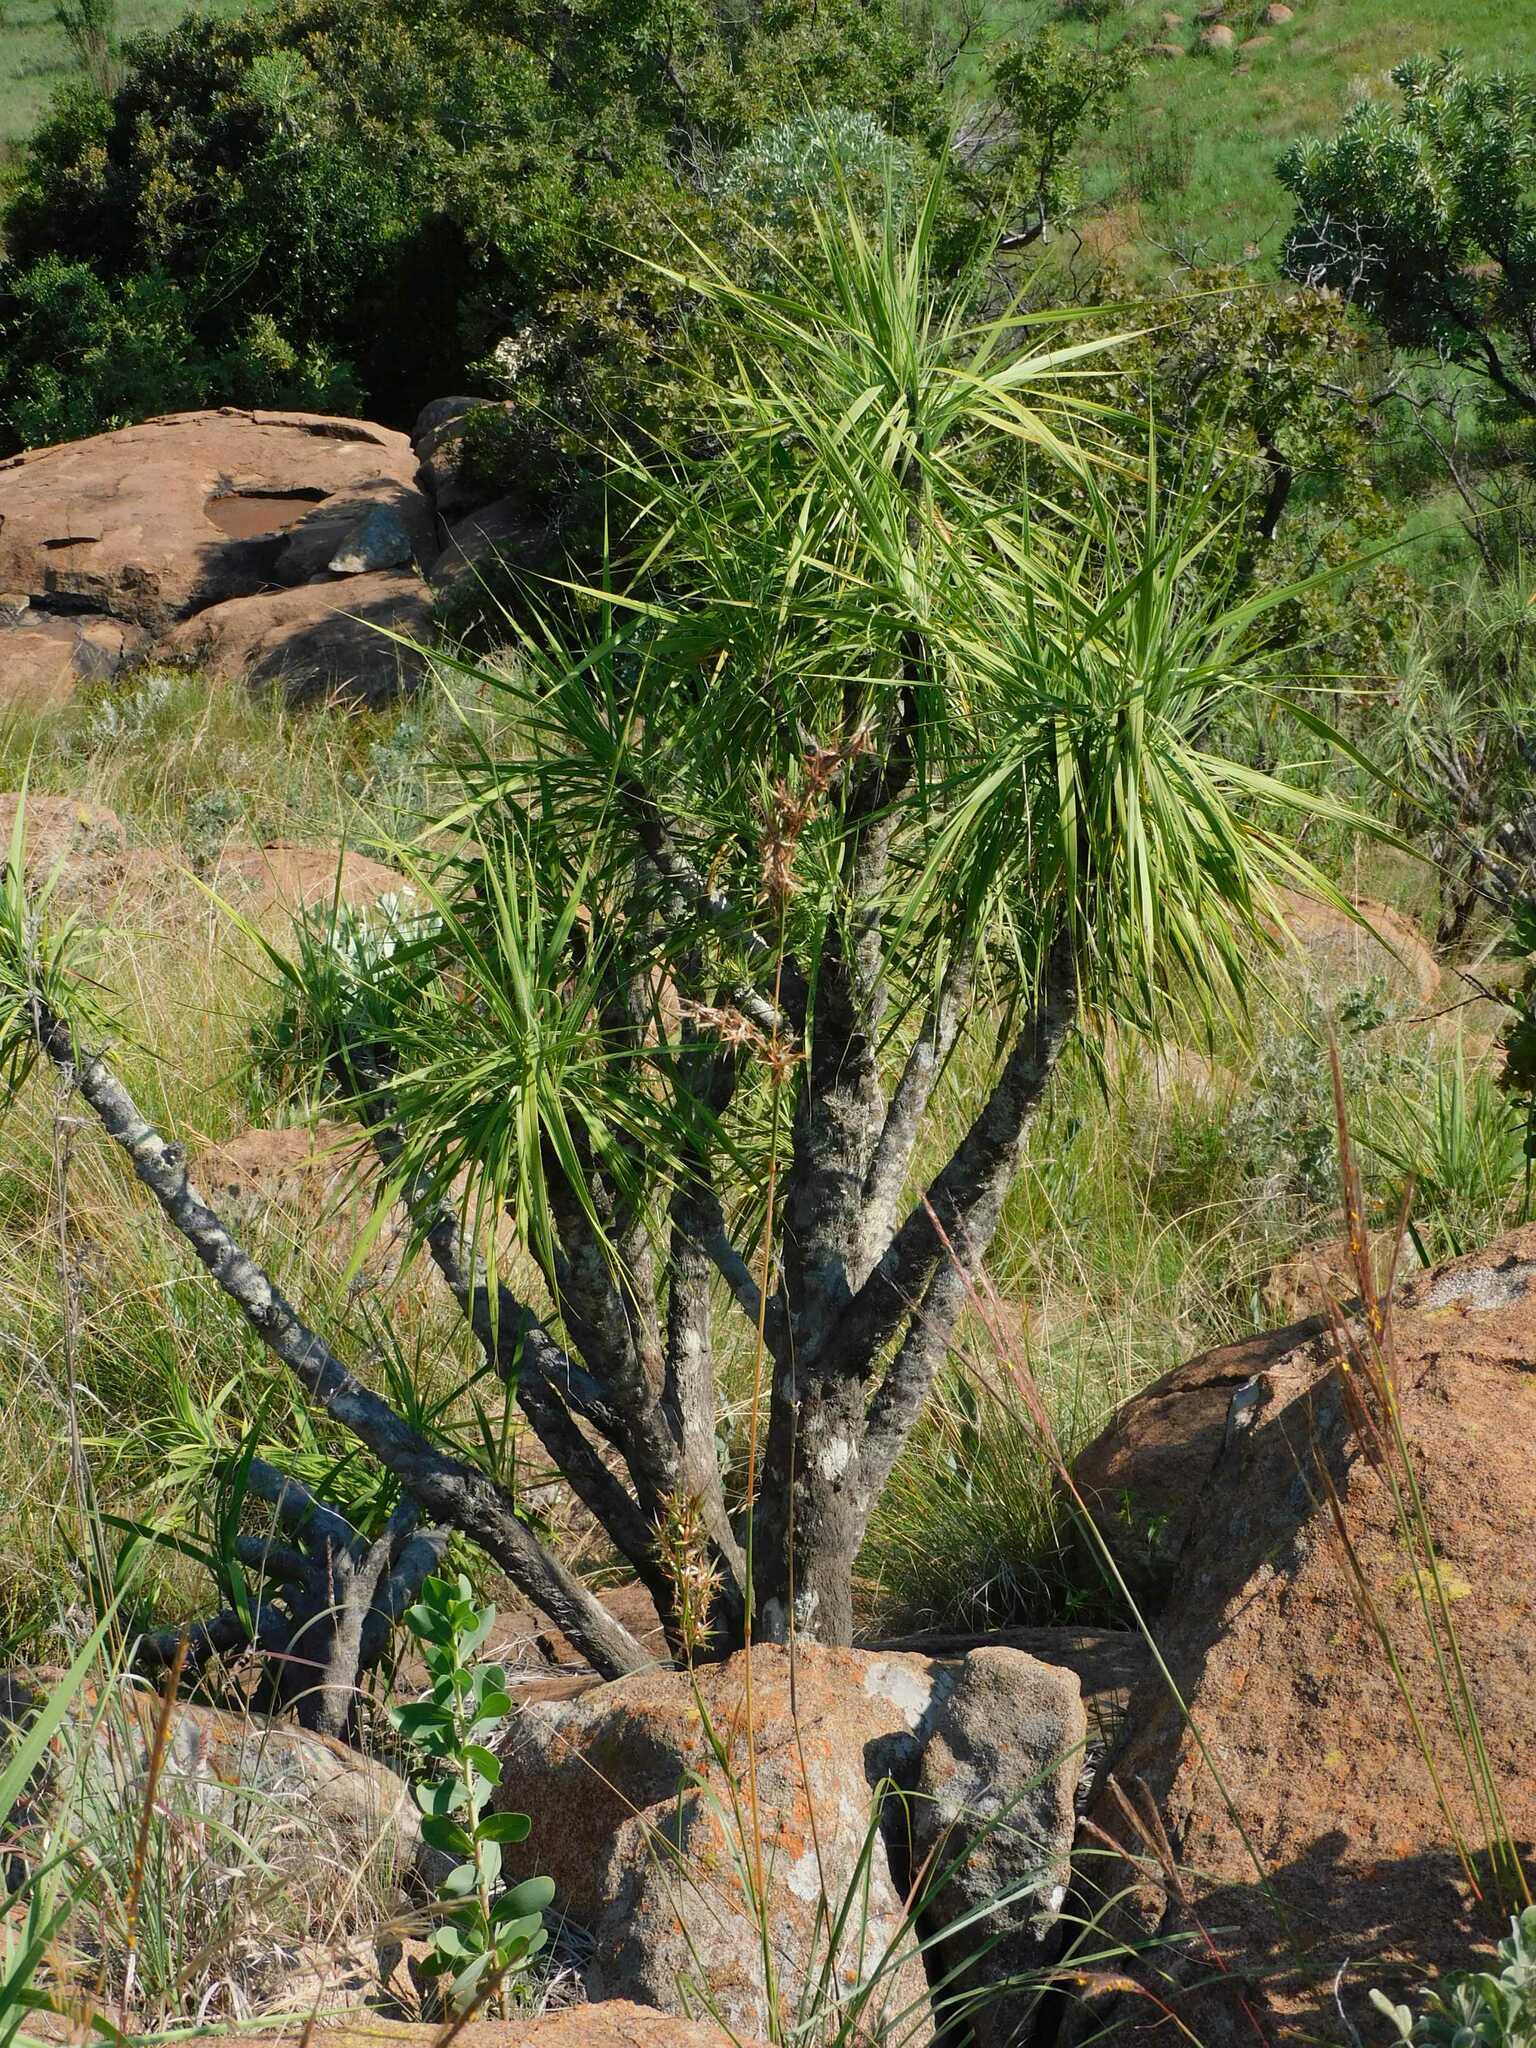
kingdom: Plantae
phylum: Tracheophyta
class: Liliopsida
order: Pandanales
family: Velloziaceae
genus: Xerophyta
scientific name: Xerophyta retinervis
